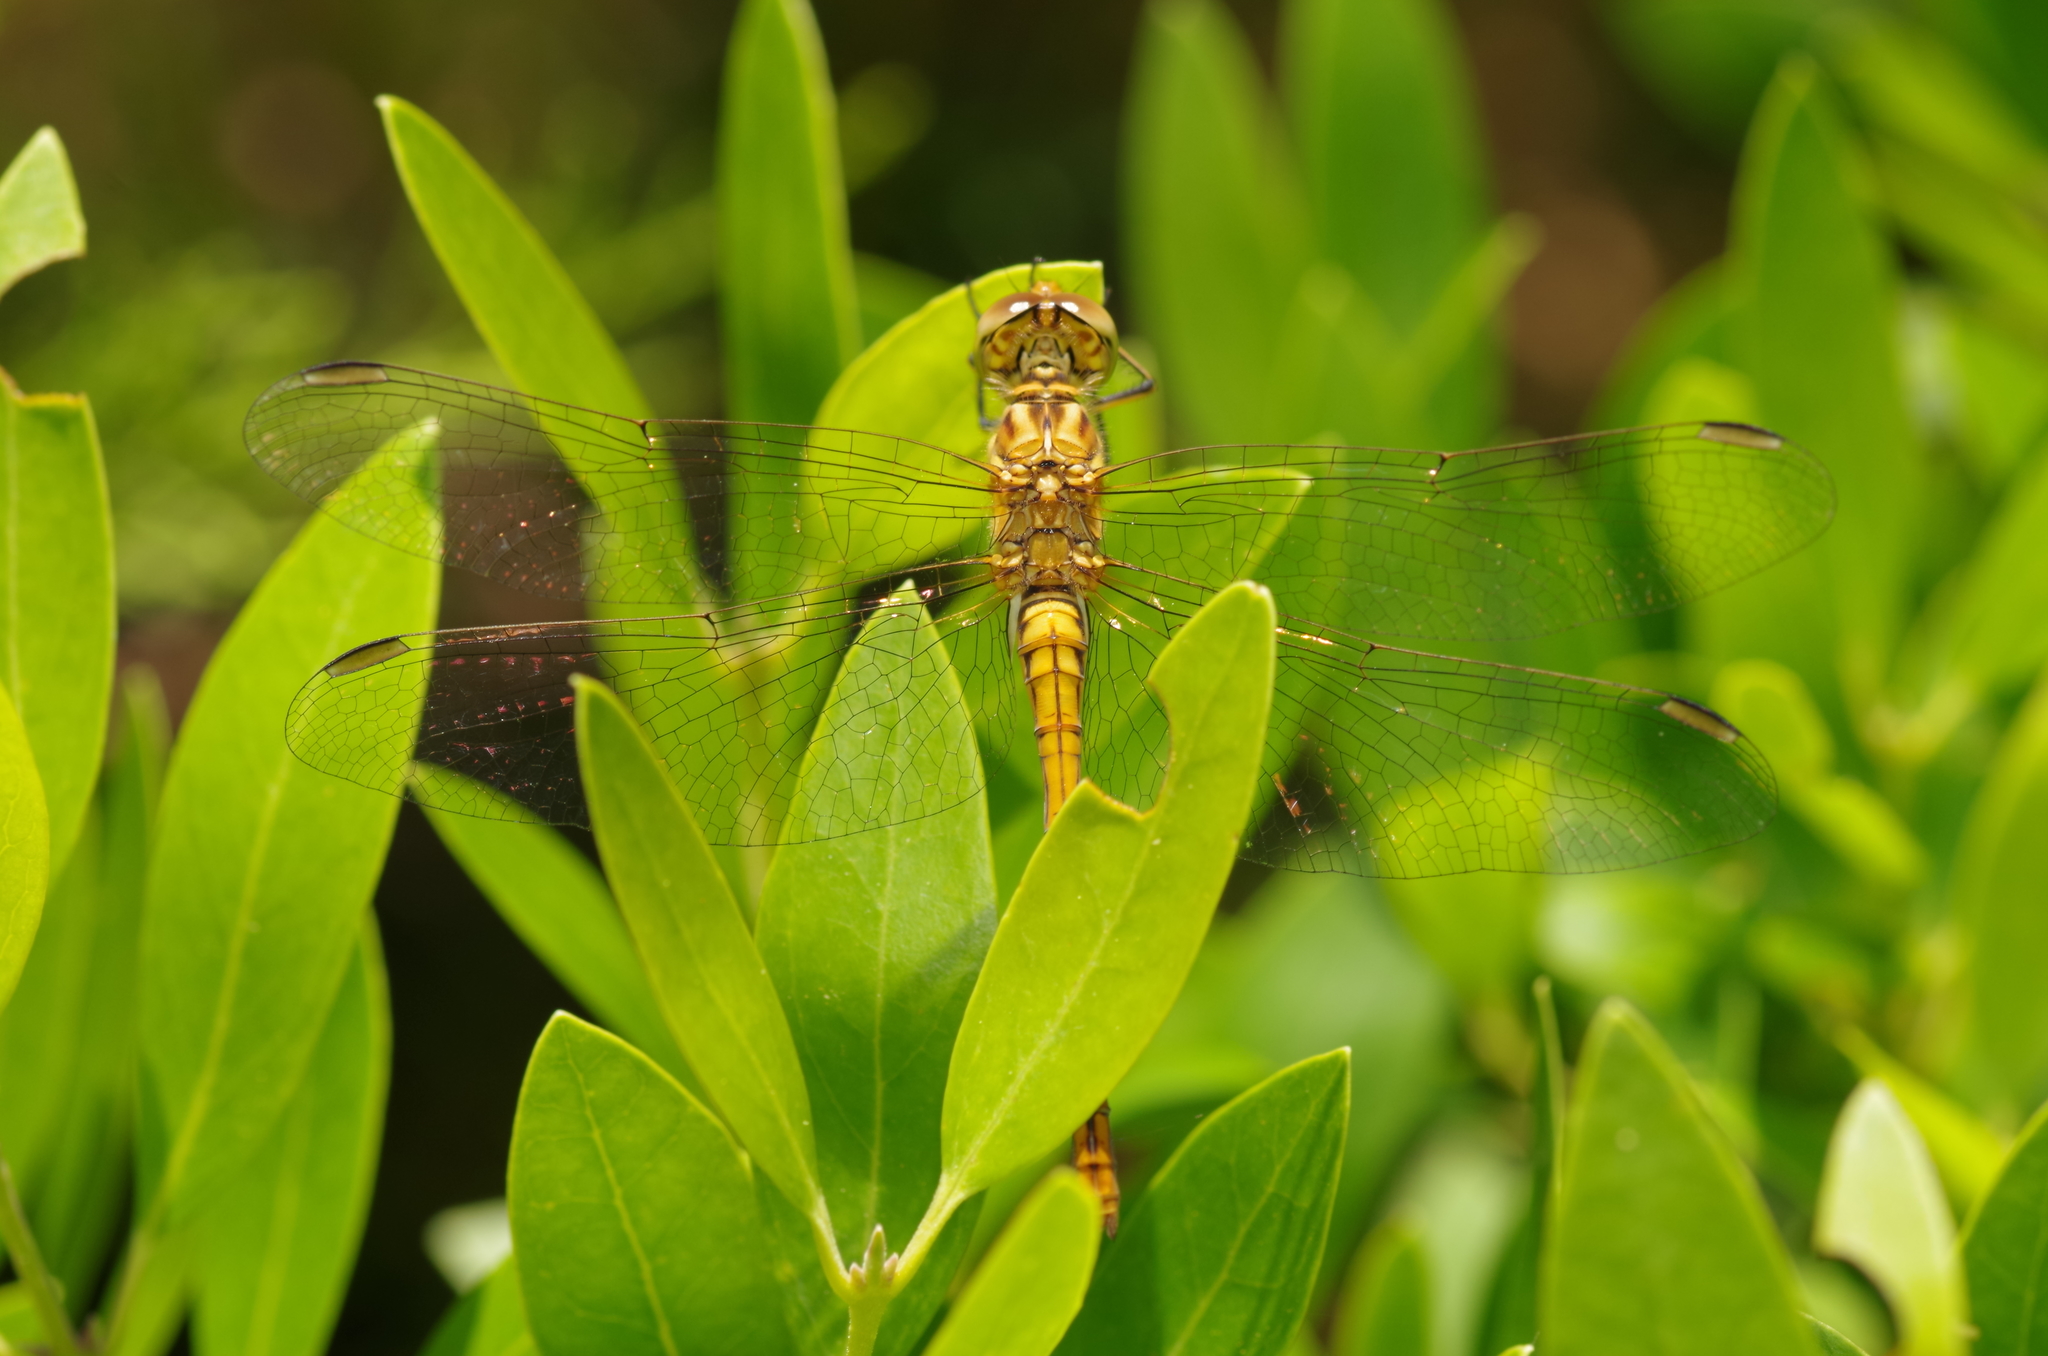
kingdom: Animalia
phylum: Arthropoda
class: Insecta
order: Odonata
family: Libellulidae
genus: Sympetrum
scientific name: Sympetrum meridionale
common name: Southern darter
